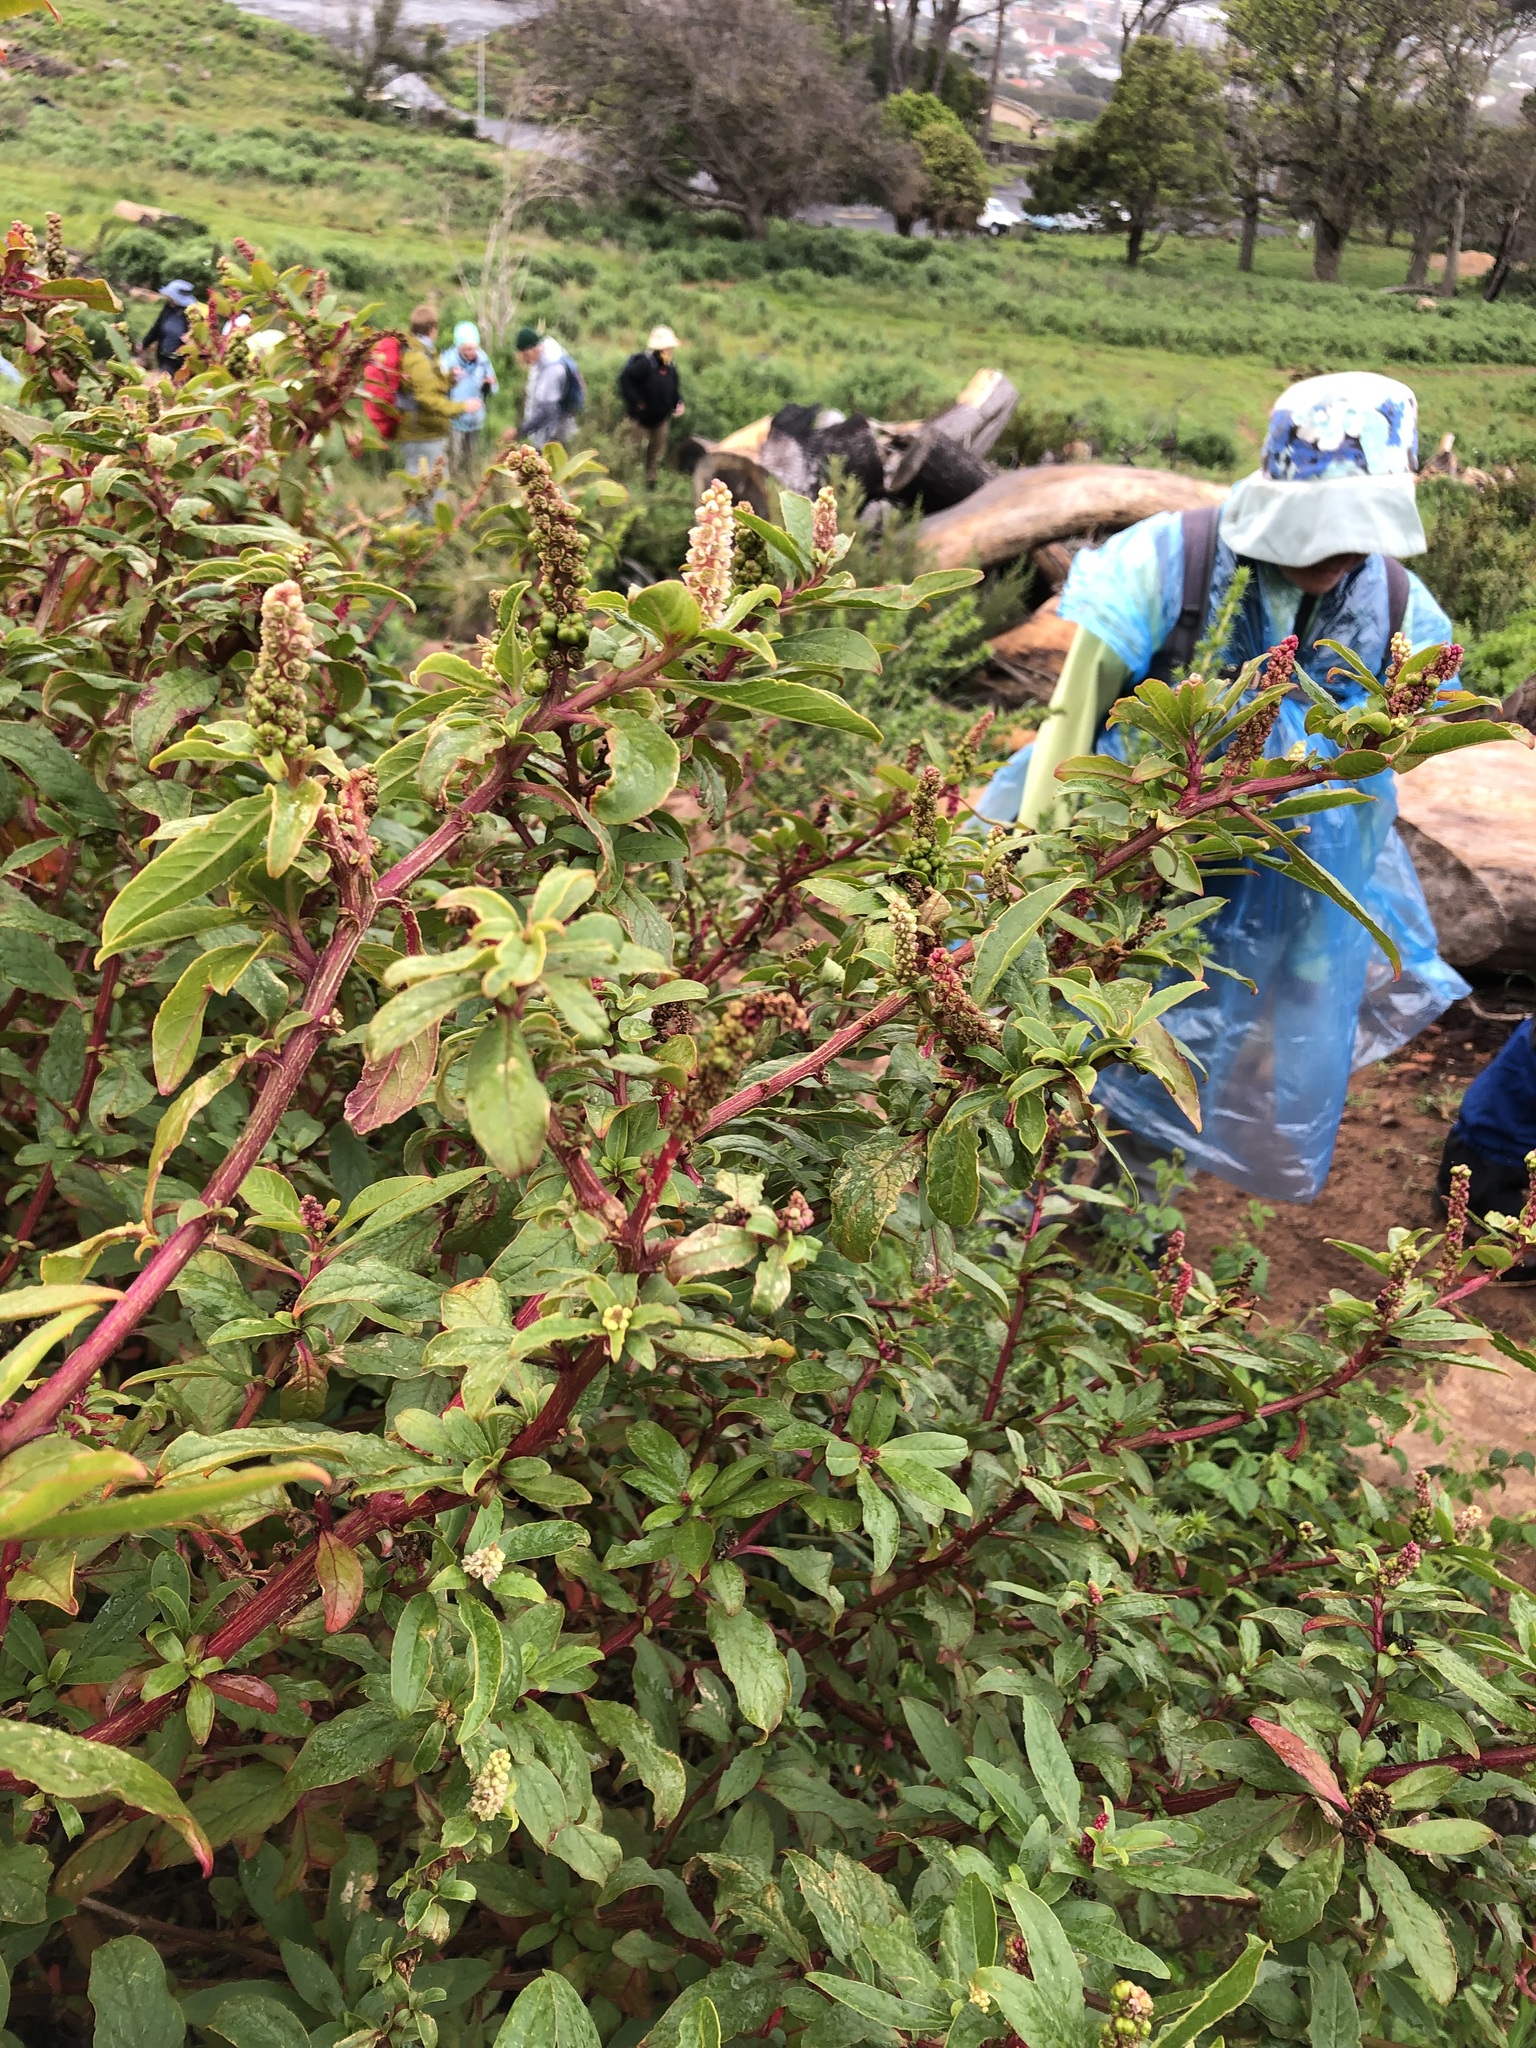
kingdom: Plantae
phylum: Tracheophyta
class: Magnoliopsida
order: Caryophyllales
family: Phytolaccaceae
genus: Phytolacca
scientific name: Phytolacca icosandra
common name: Button pokeweed
